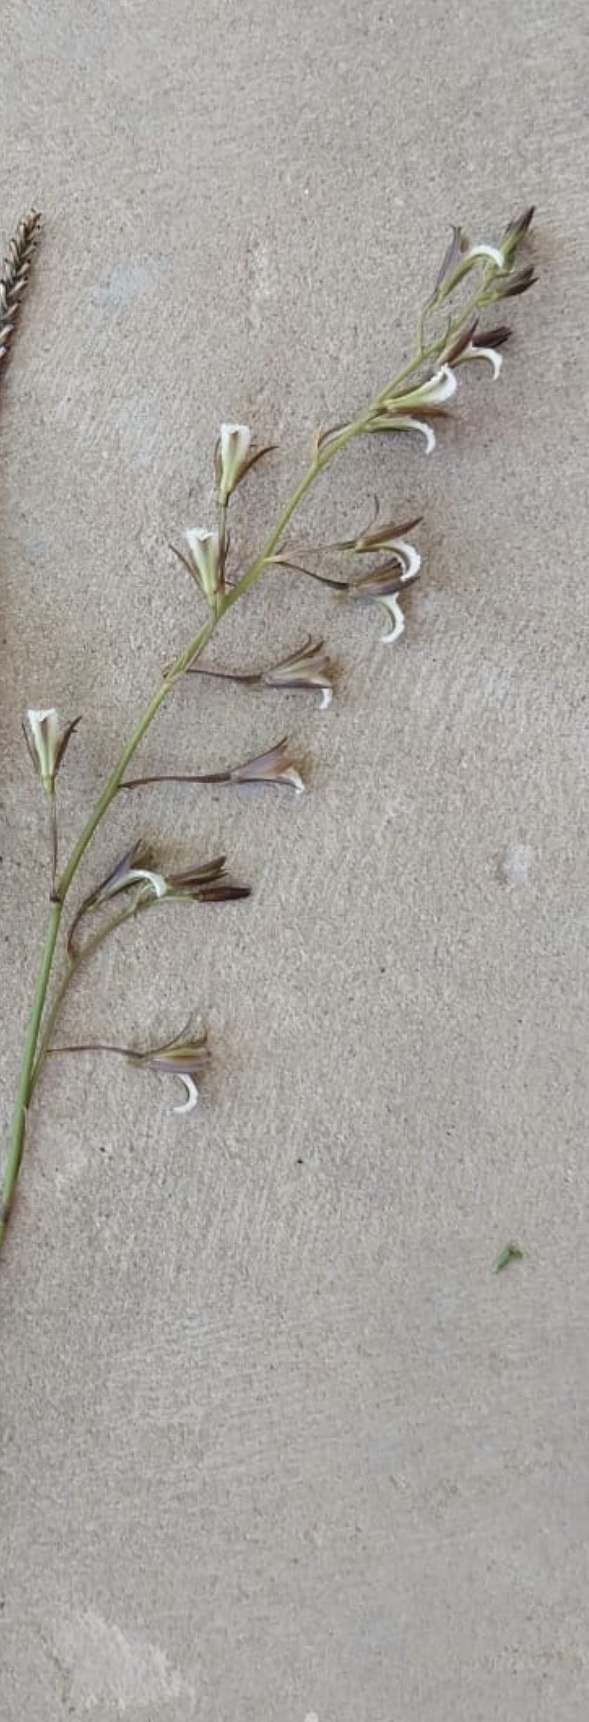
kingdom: Plantae
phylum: Tracheophyta
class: Liliopsida
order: Asparagales
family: Orchidaceae
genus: Eulophia
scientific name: Eulophia tristis
